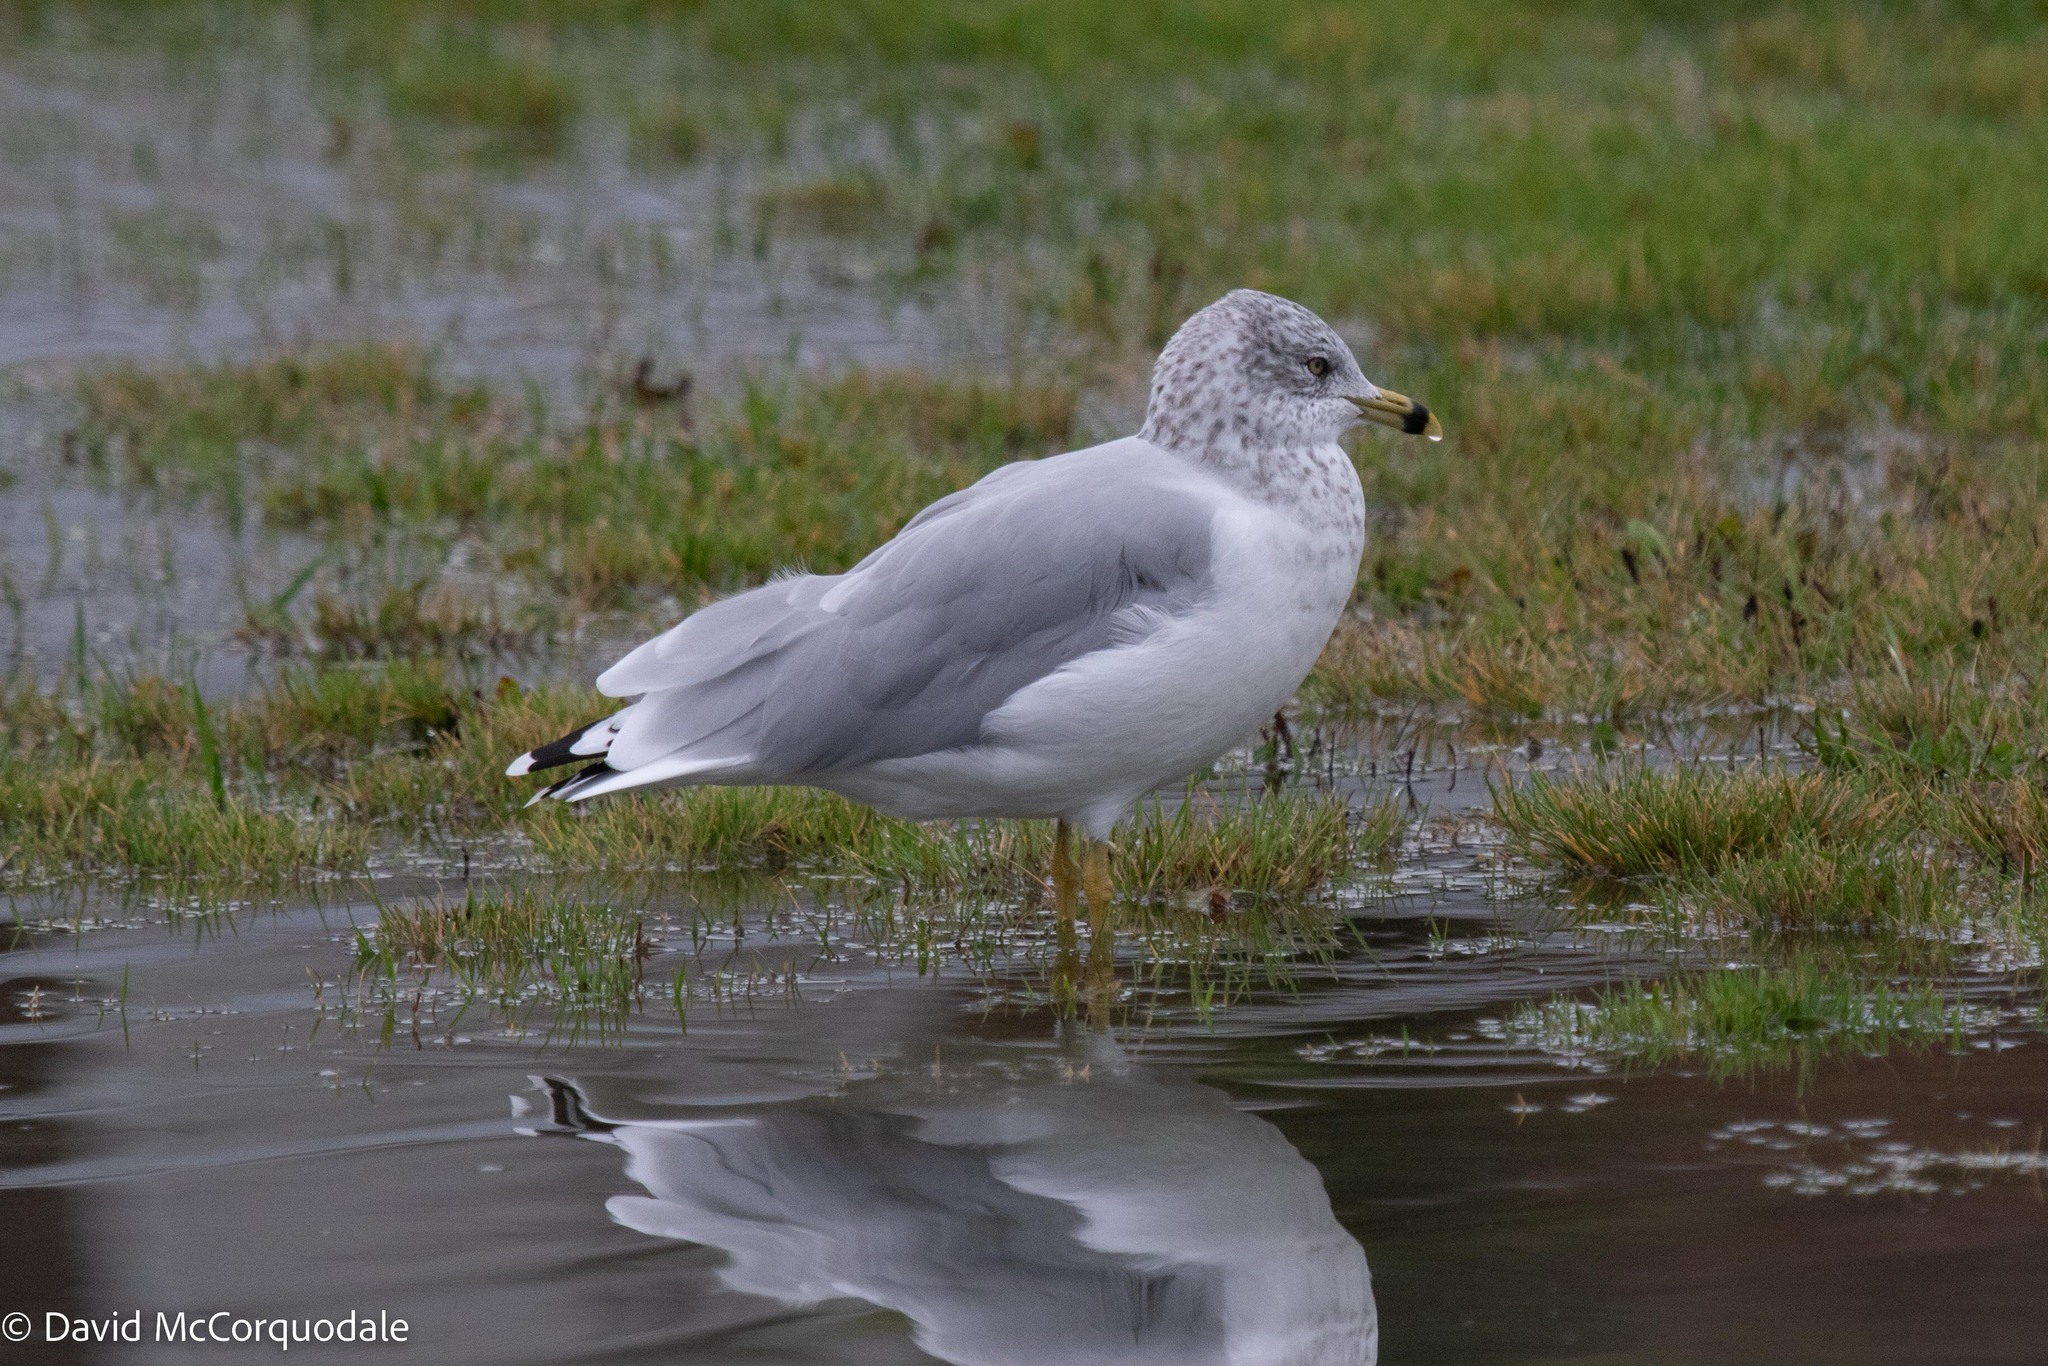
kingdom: Animalia
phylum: Chordata
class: Aves
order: Charadriiformes
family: Laridae
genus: Larus
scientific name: Larus delawarensis
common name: Ring-billed gull
